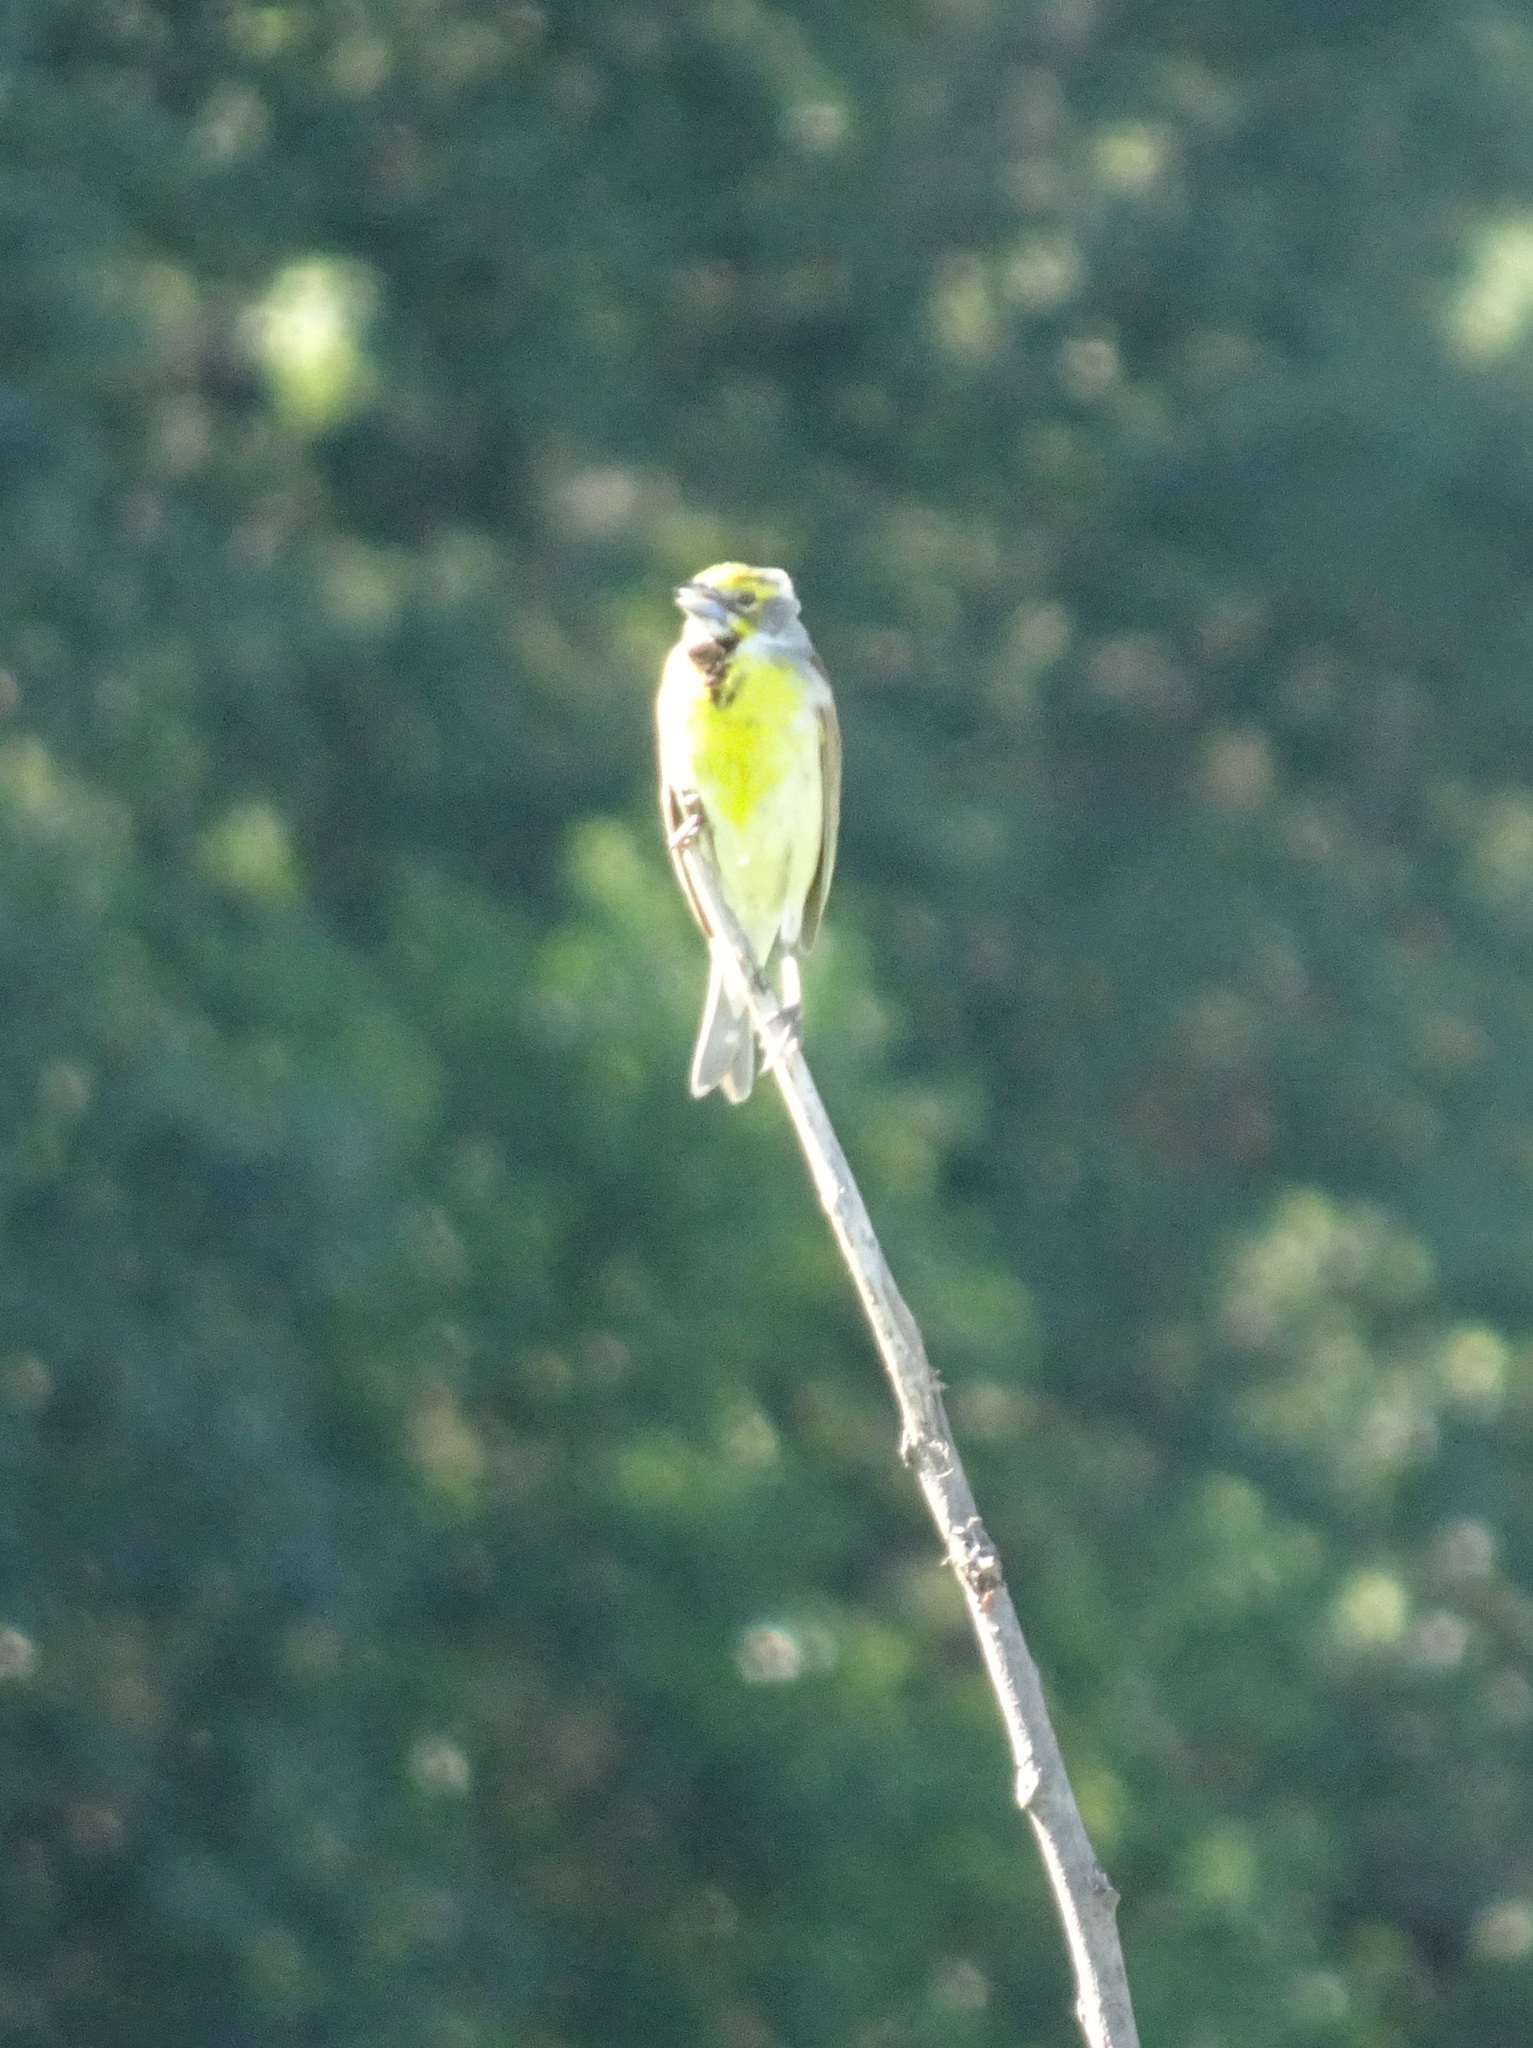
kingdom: Animalia
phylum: Chordata
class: Aves
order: Passeriformes
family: Cardinalidae
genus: Spiza
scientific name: Spiza americana
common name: Dickcissel
